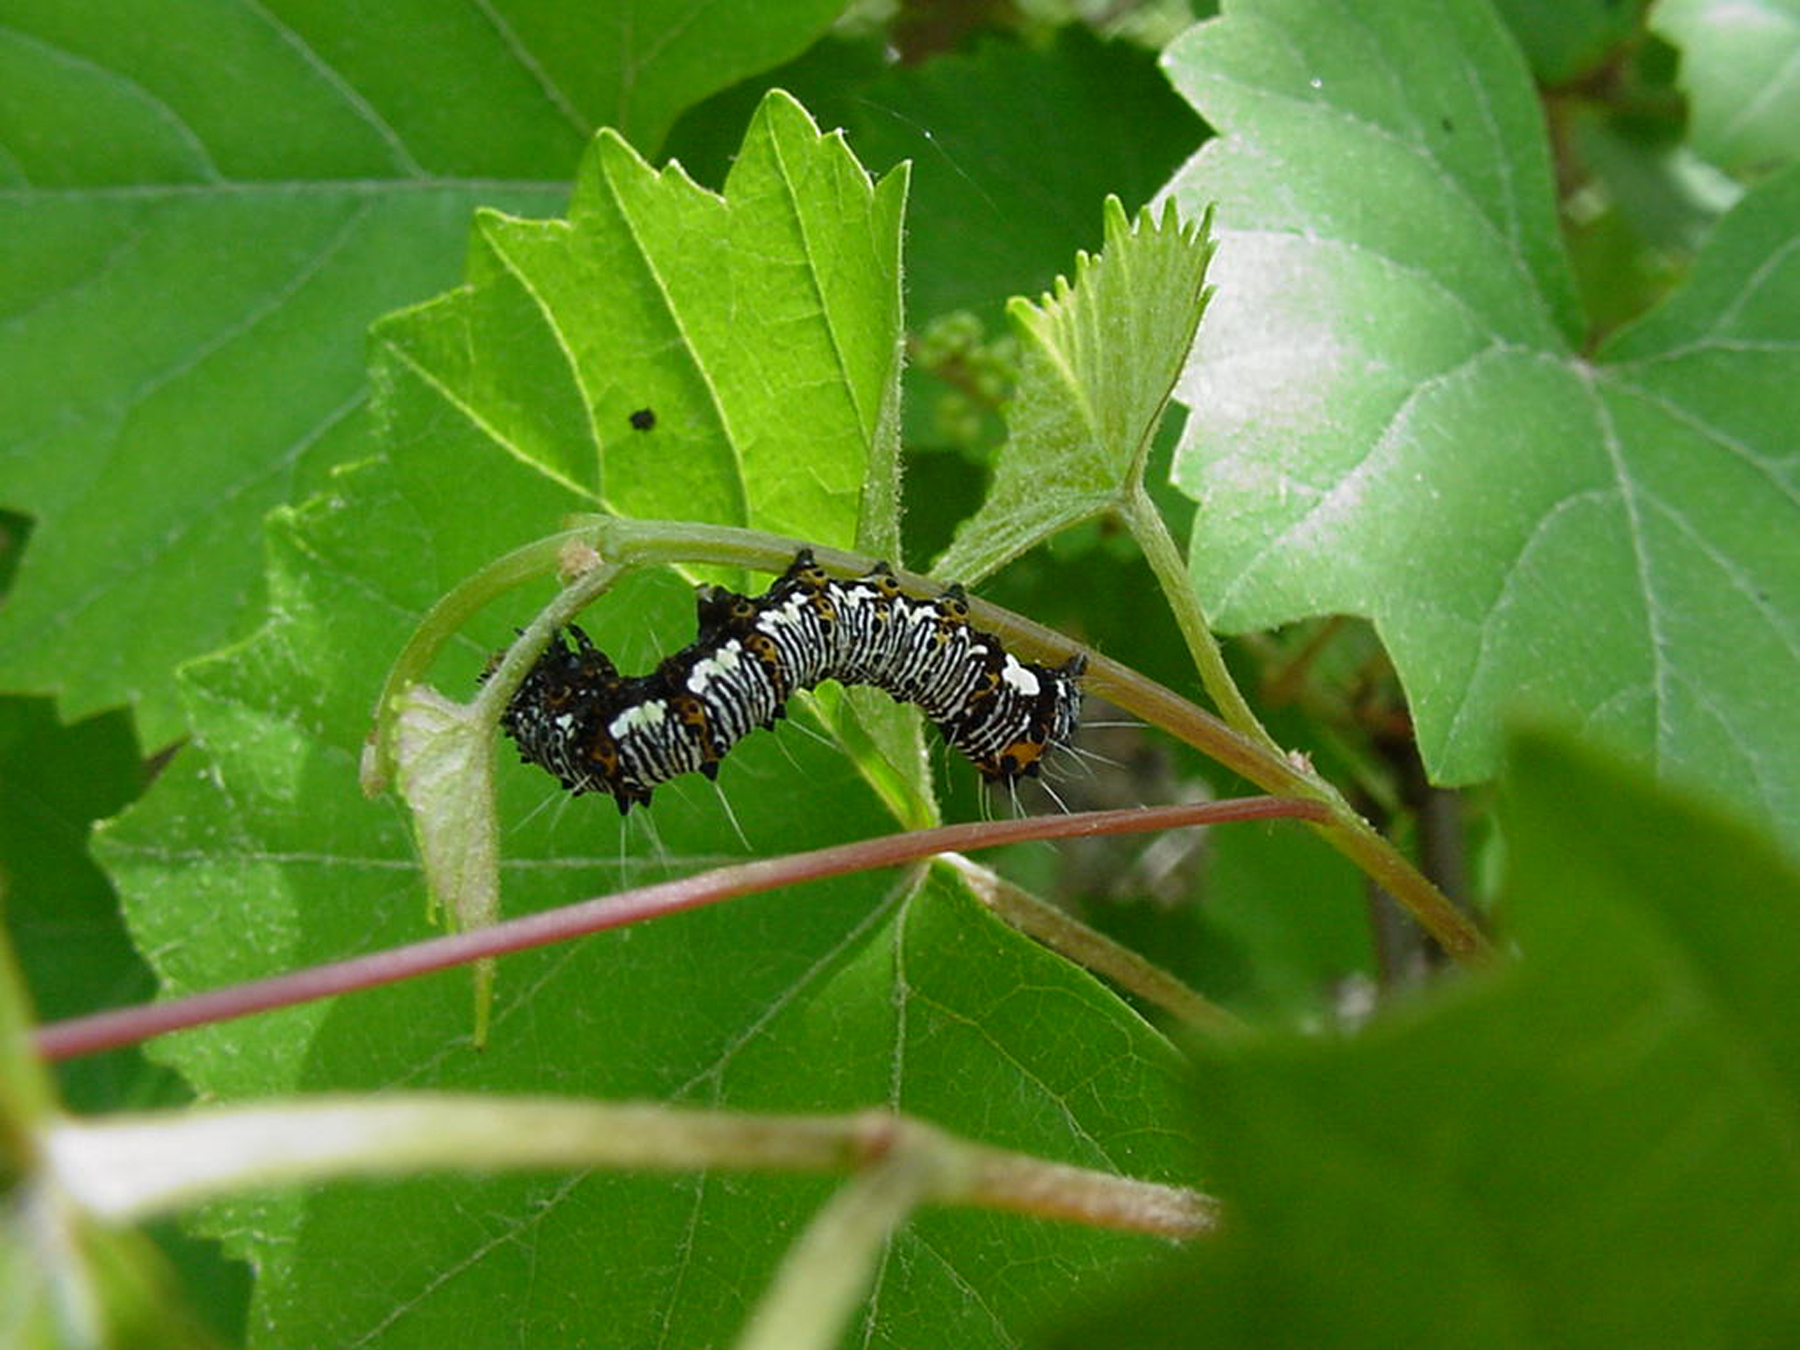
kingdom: Animalia
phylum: Arthropoda
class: Insecta
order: Lepidoptera
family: Noctuidae
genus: Alypia
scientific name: Alypia octomaculata
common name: Eight-spotted forester
